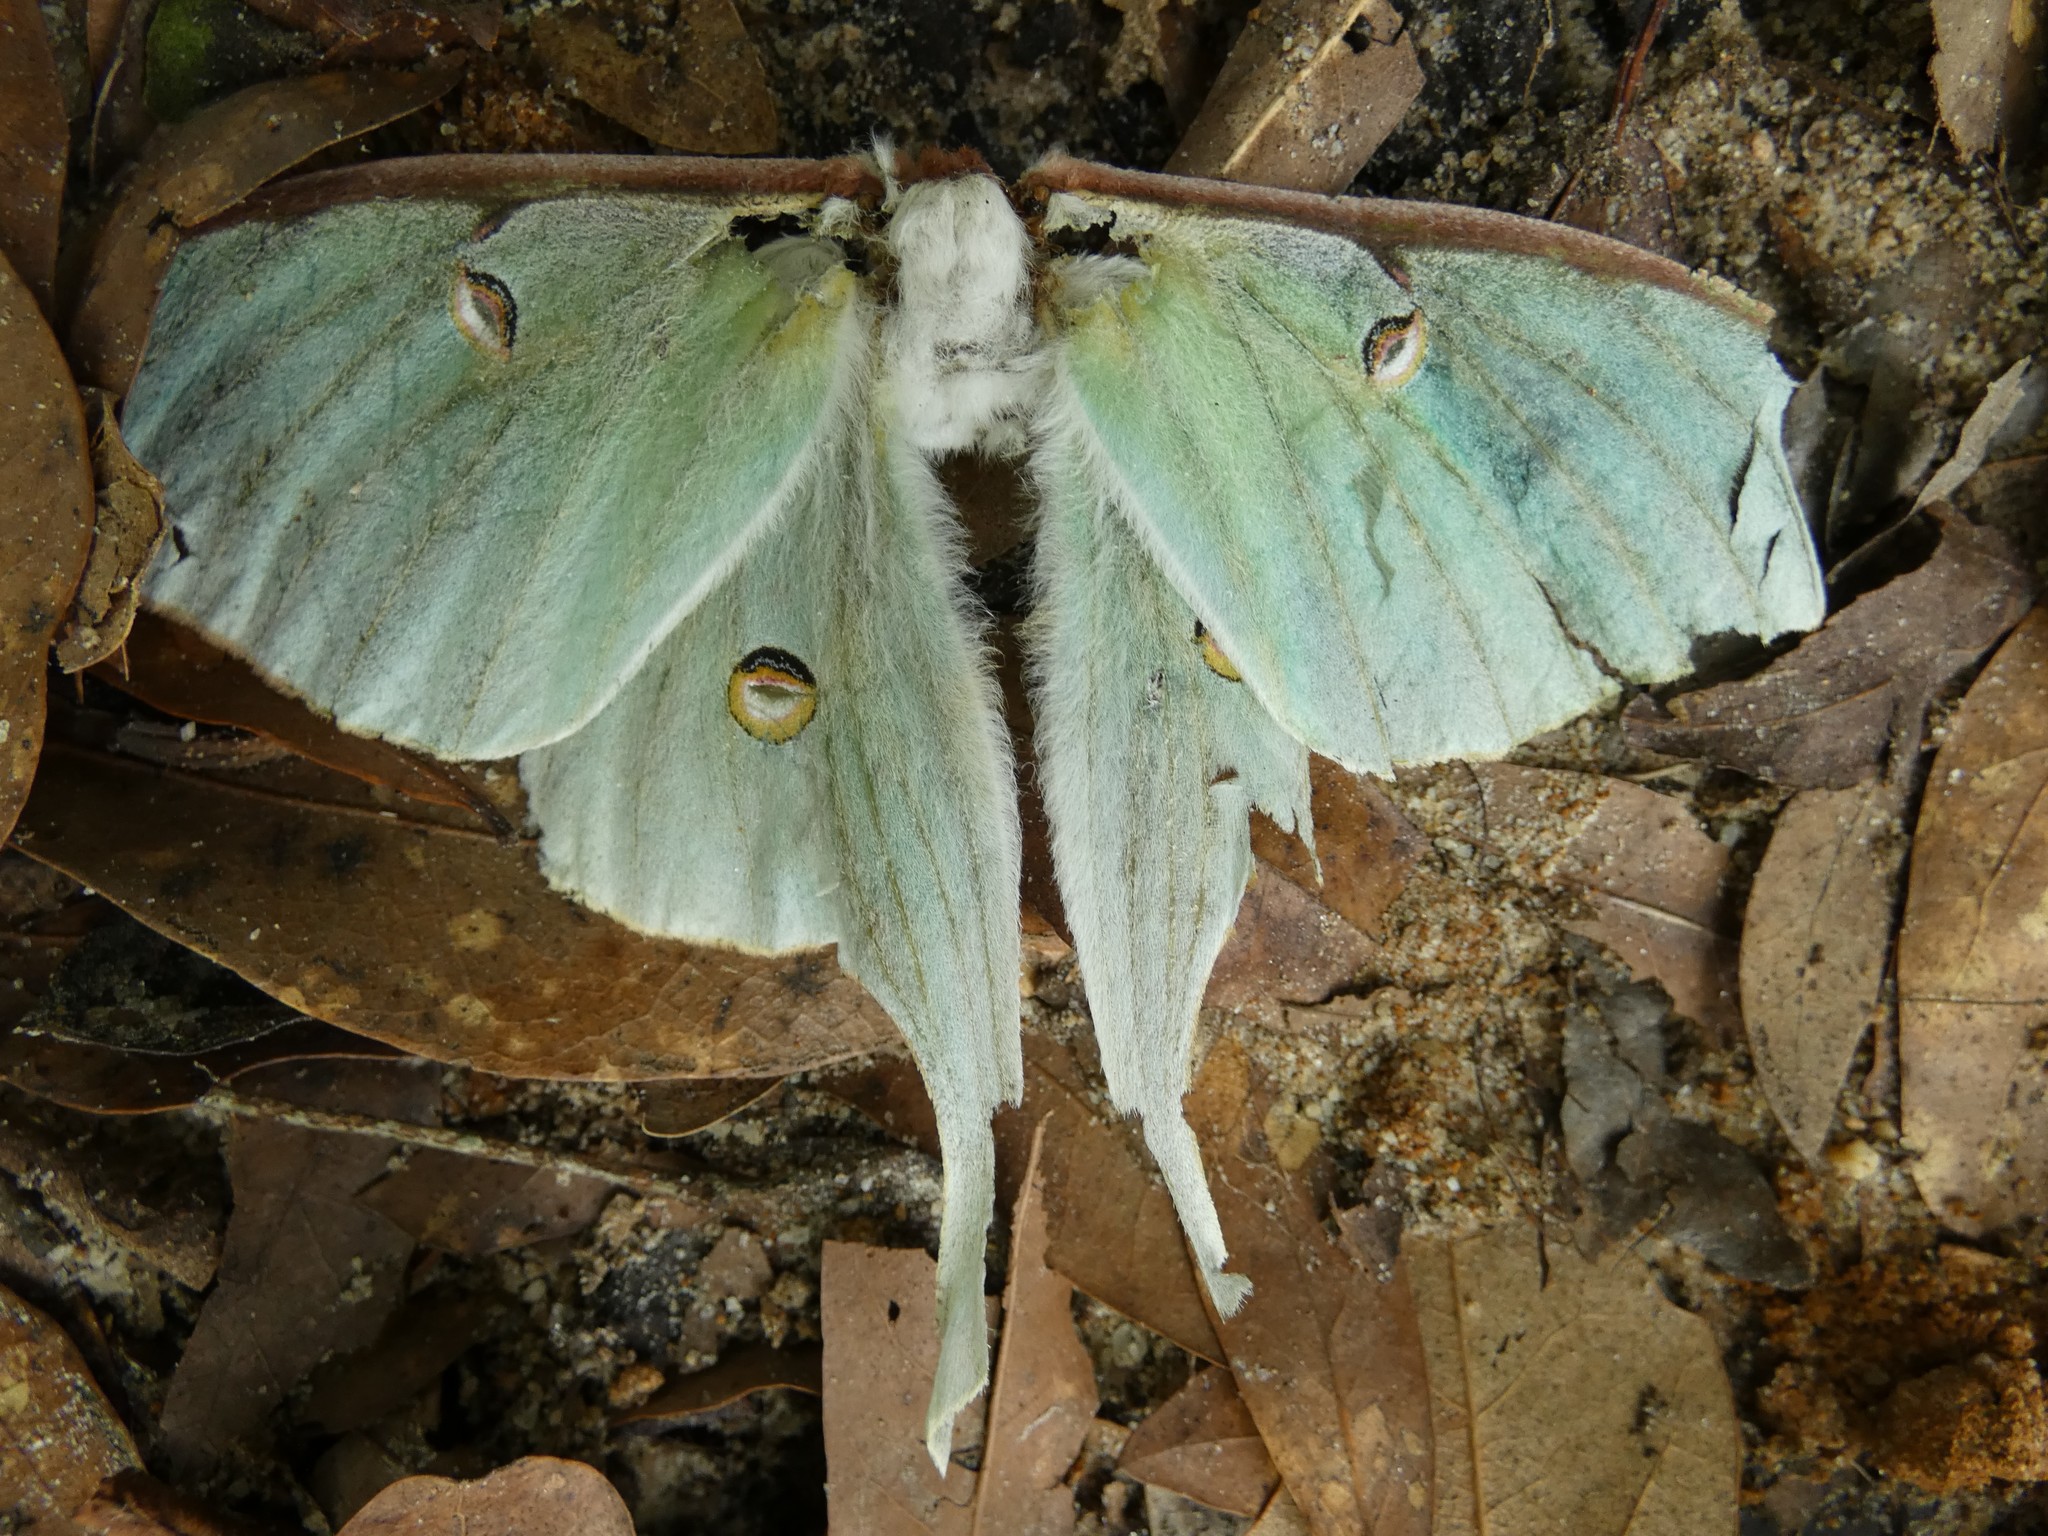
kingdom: Animalia
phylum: Arthropoda
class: Insecta
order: Lepidoptera
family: Saturniidae
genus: Actias
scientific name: Actias luna
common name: Luna moth
